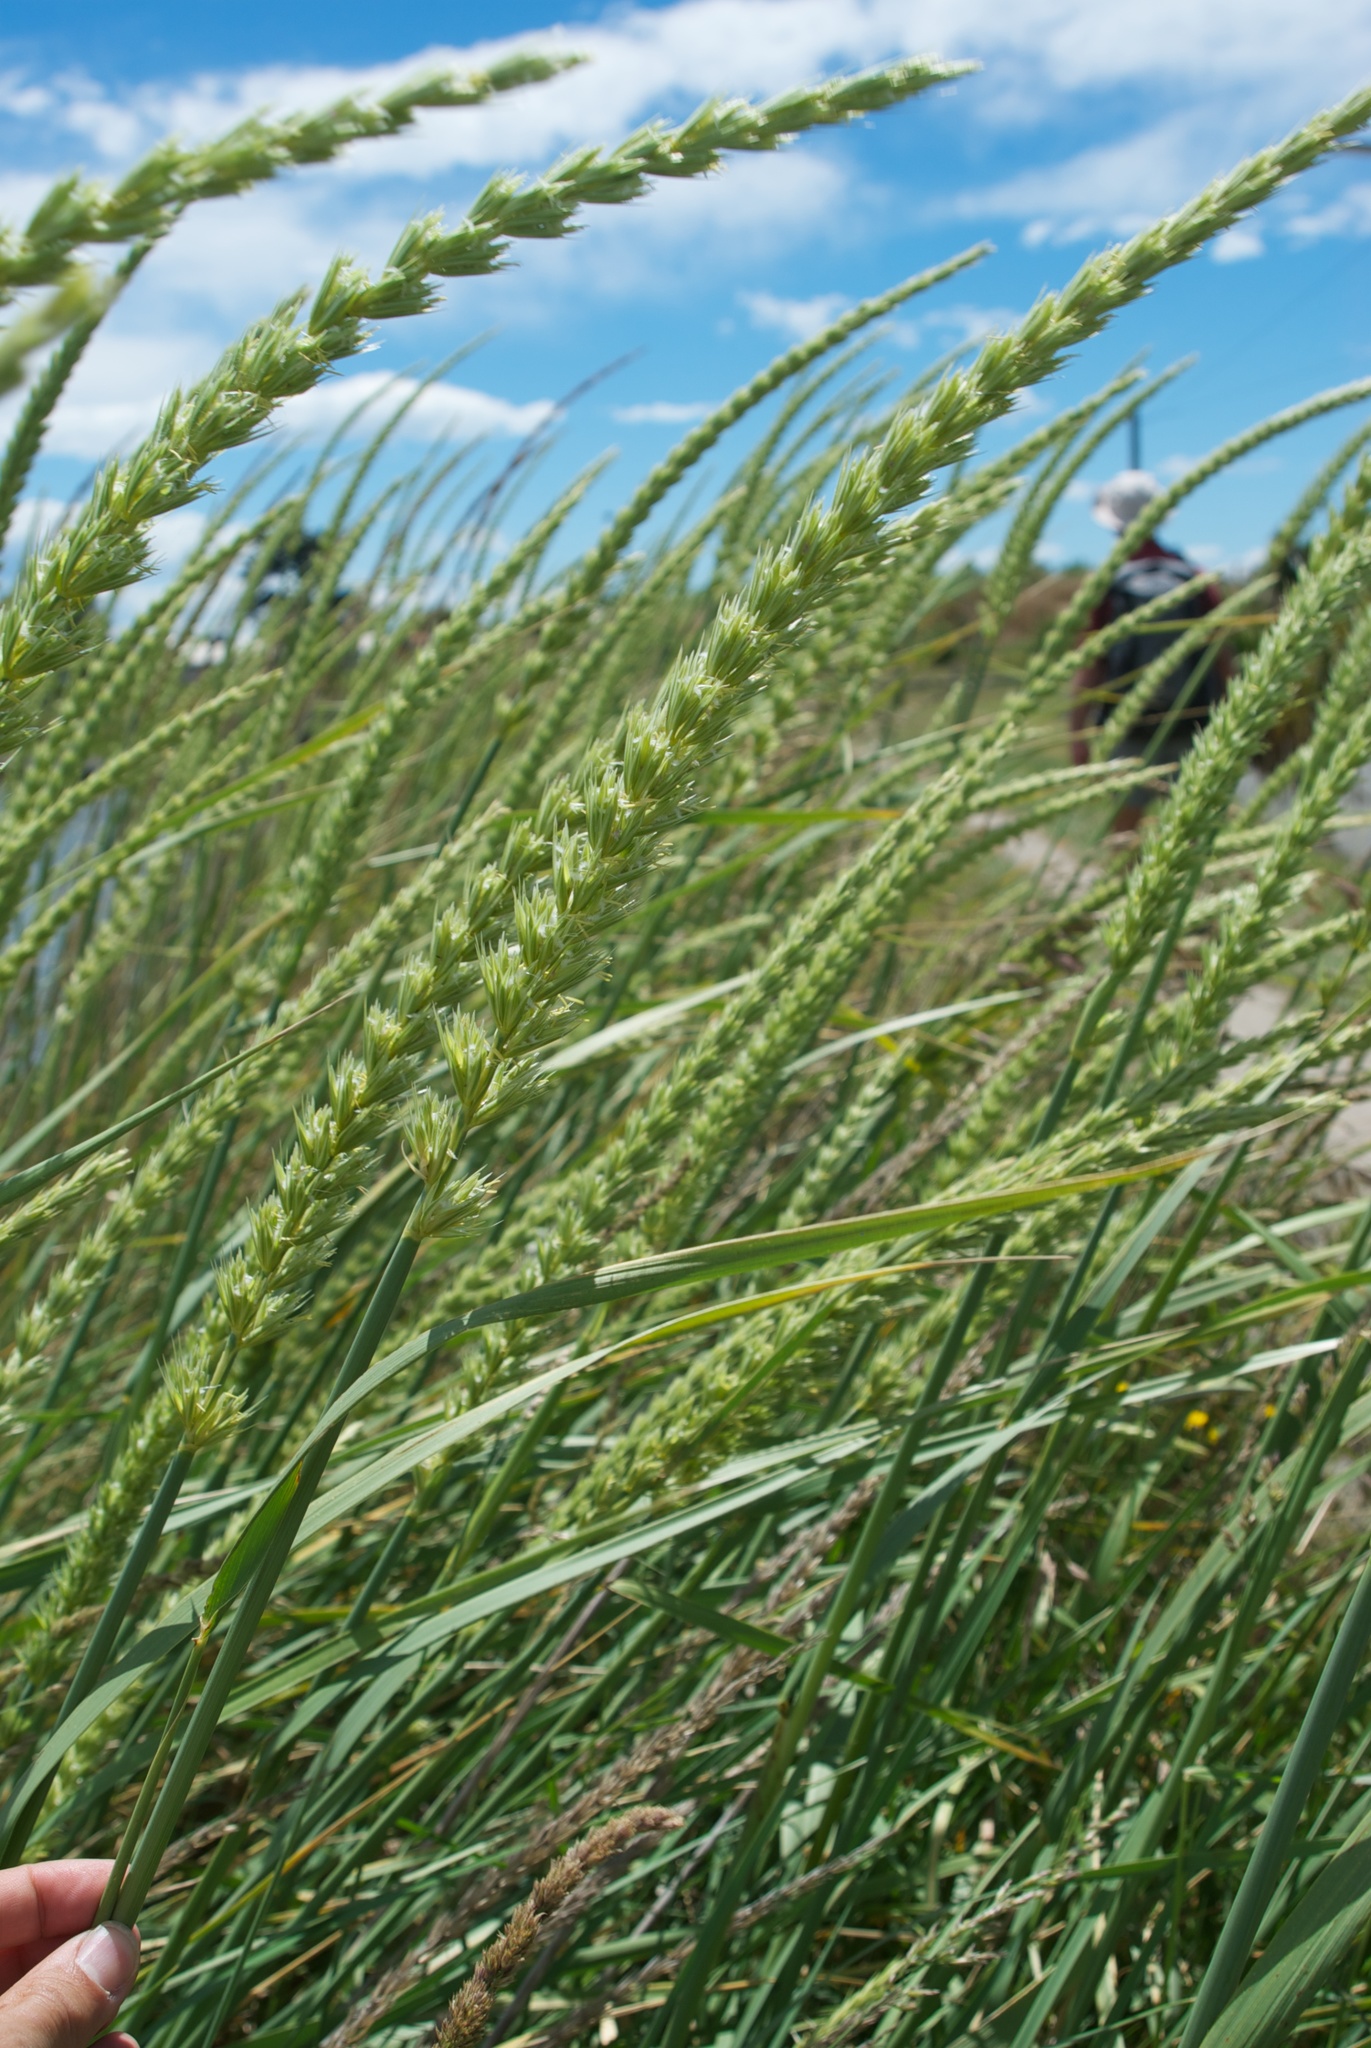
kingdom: Plantae
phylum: Tracheophyta
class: Liliopsida
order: Poales
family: Poaceae
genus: Leymus
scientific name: Leymus racemosus
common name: Mammoth wildrye
